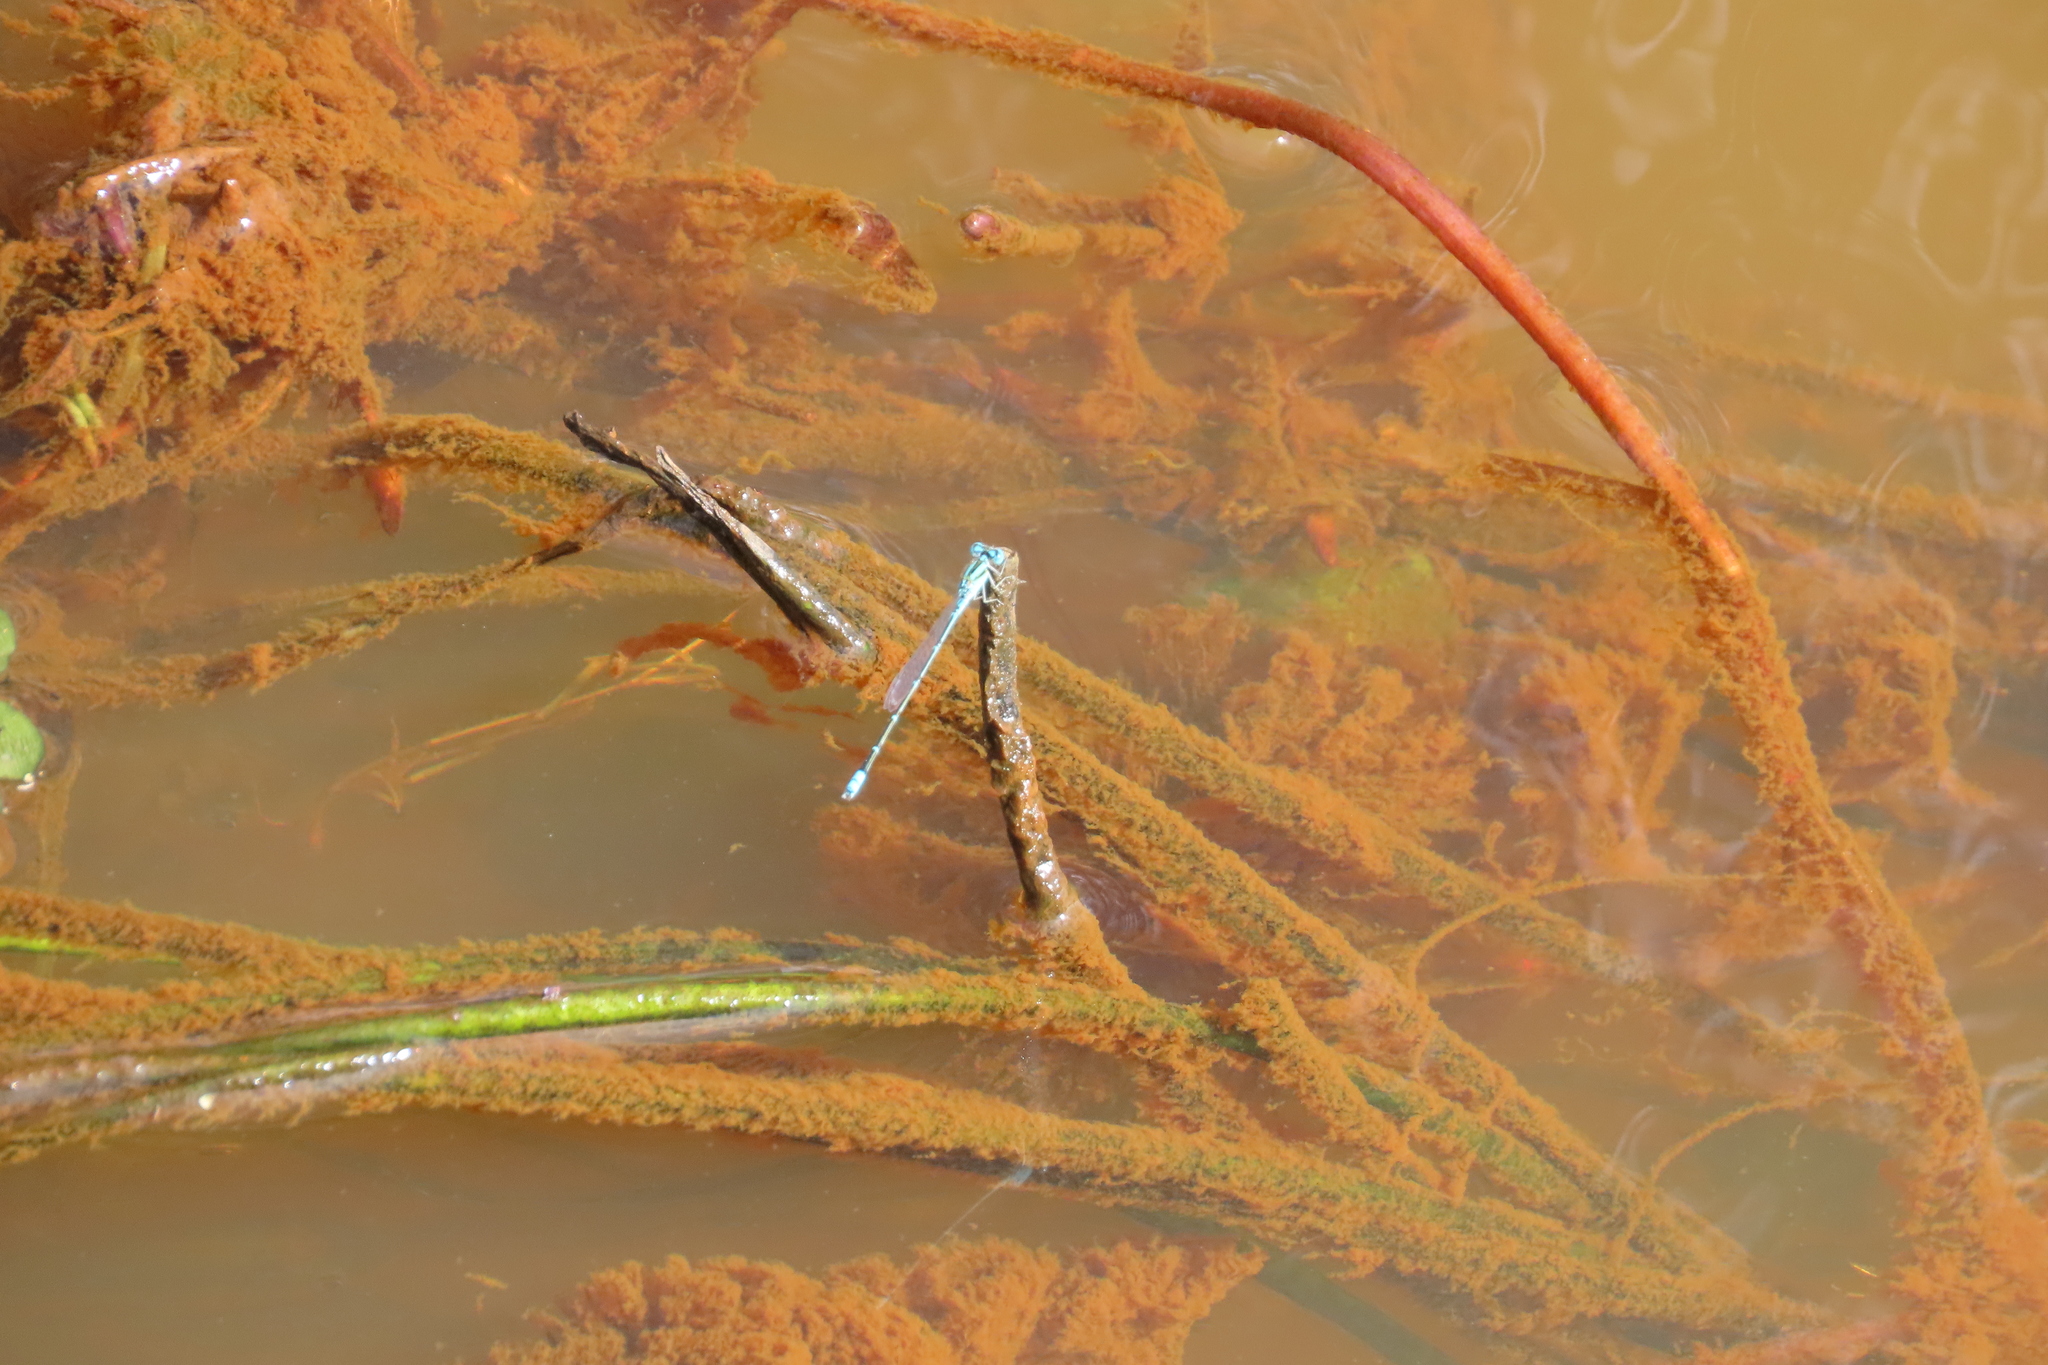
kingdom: Animalia
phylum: Arthropoda
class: Insecta
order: Odonata
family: Coenagrionidae
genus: Pseudagrion
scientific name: Pseudagrion microcephalum
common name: Blue riverdamsel
